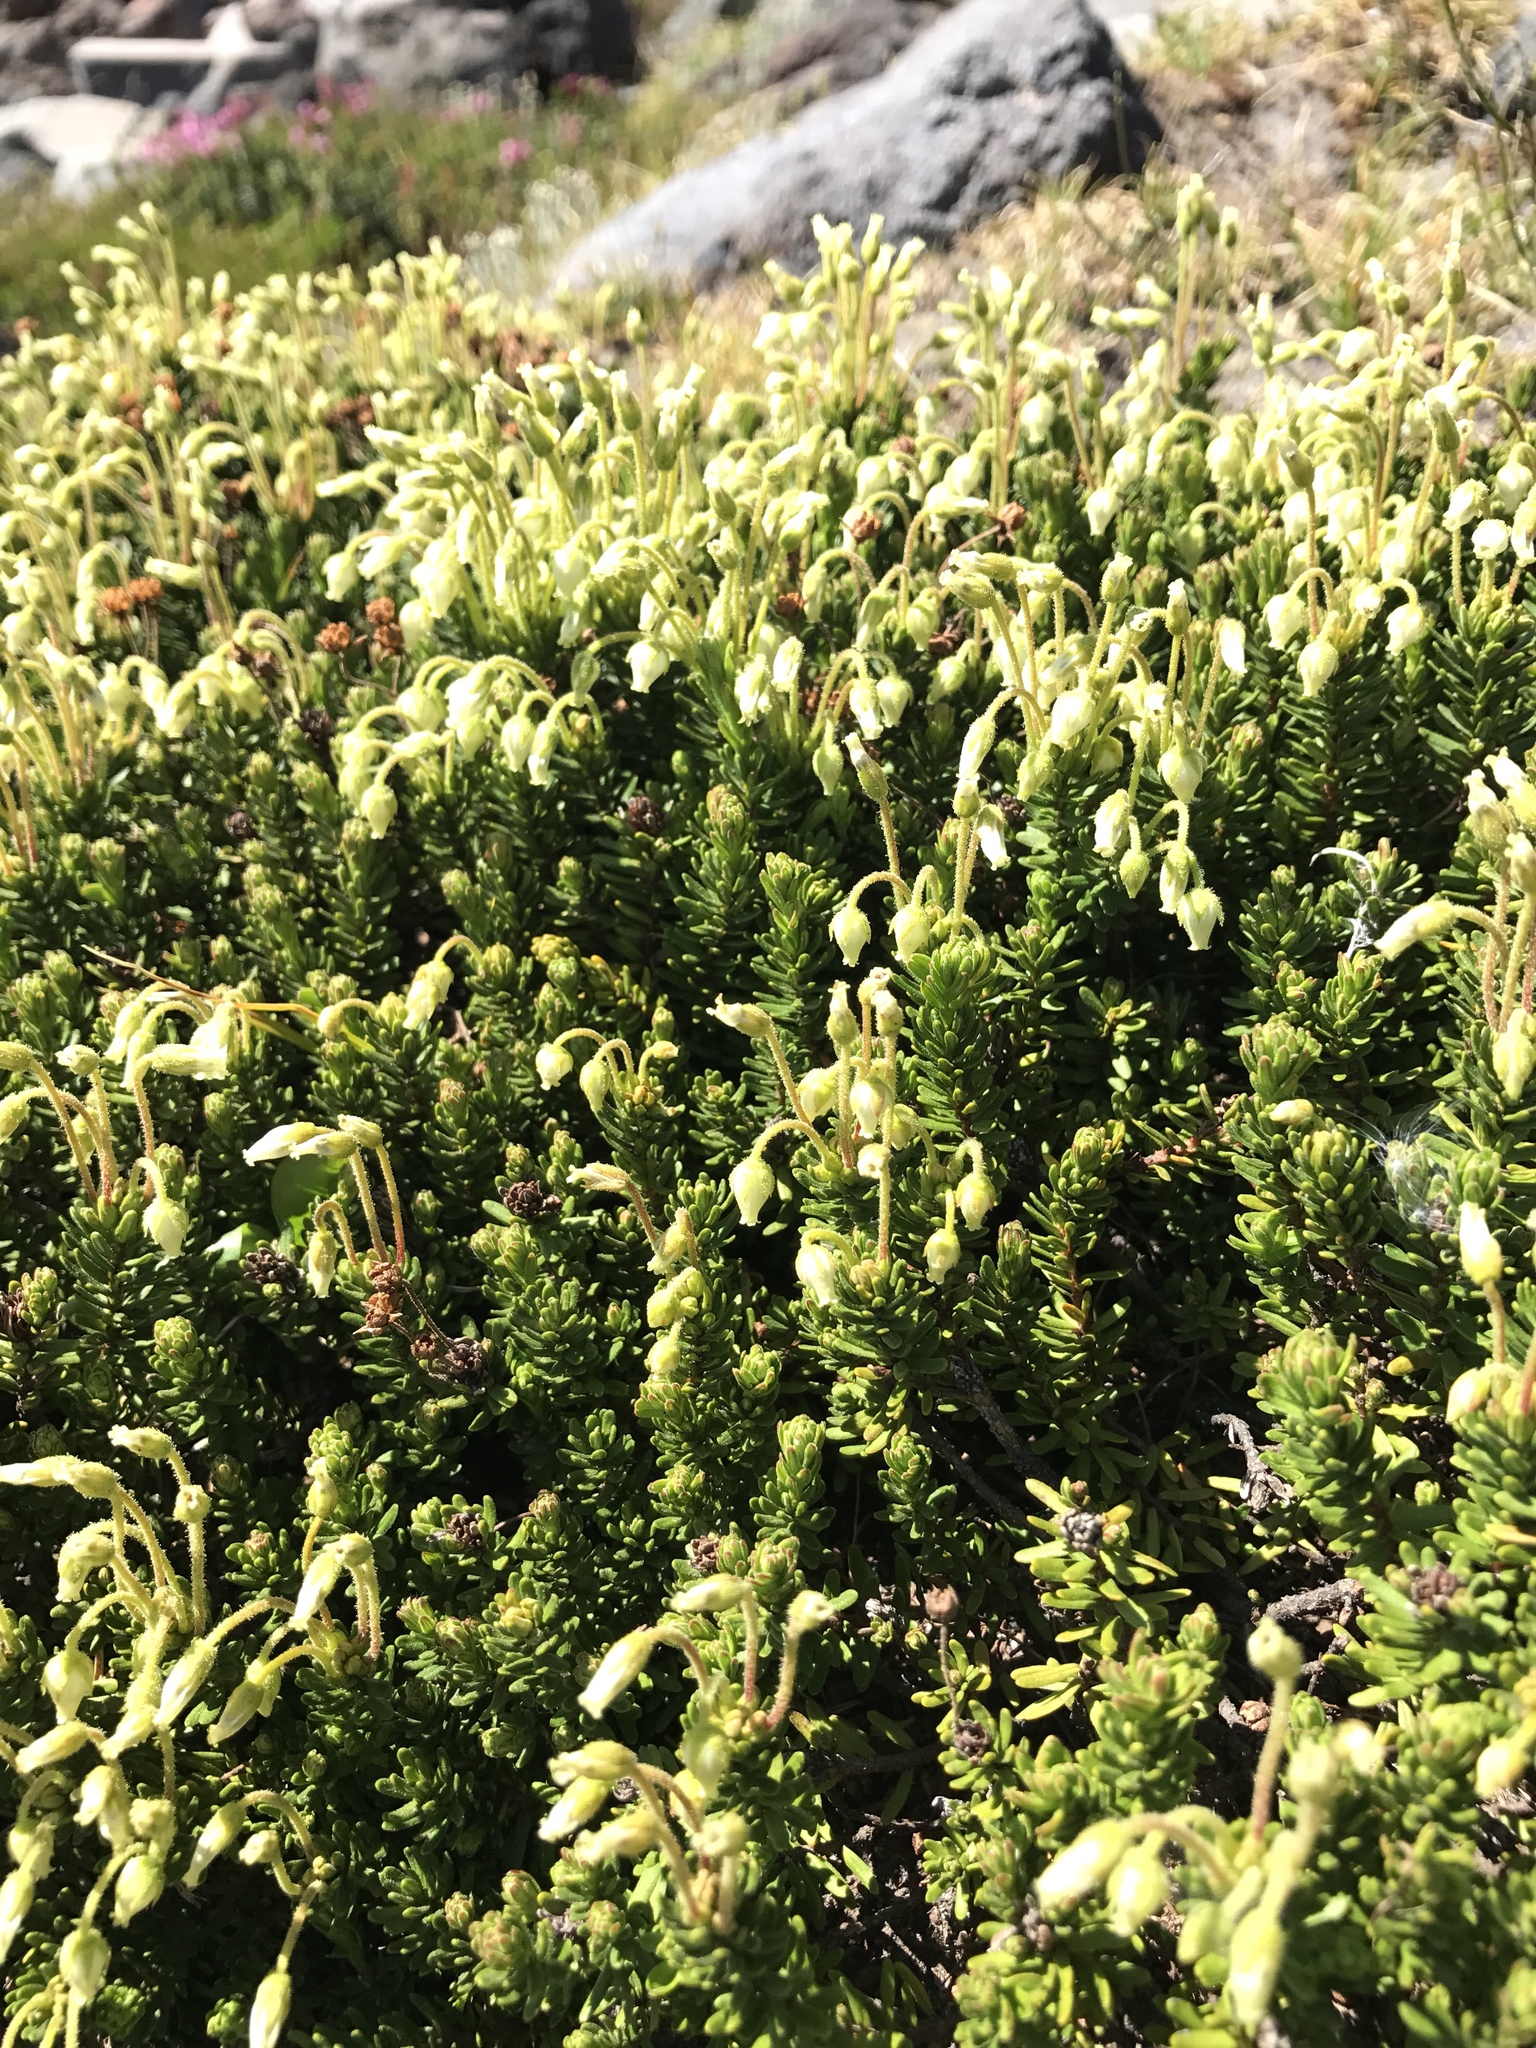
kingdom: Plantae
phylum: Tracheophyta
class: Magnoliopsida
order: Ericales
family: Ericaceae
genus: Phyllodoce
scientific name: Phyllodoce glanduliflora
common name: Cream mountain heather
